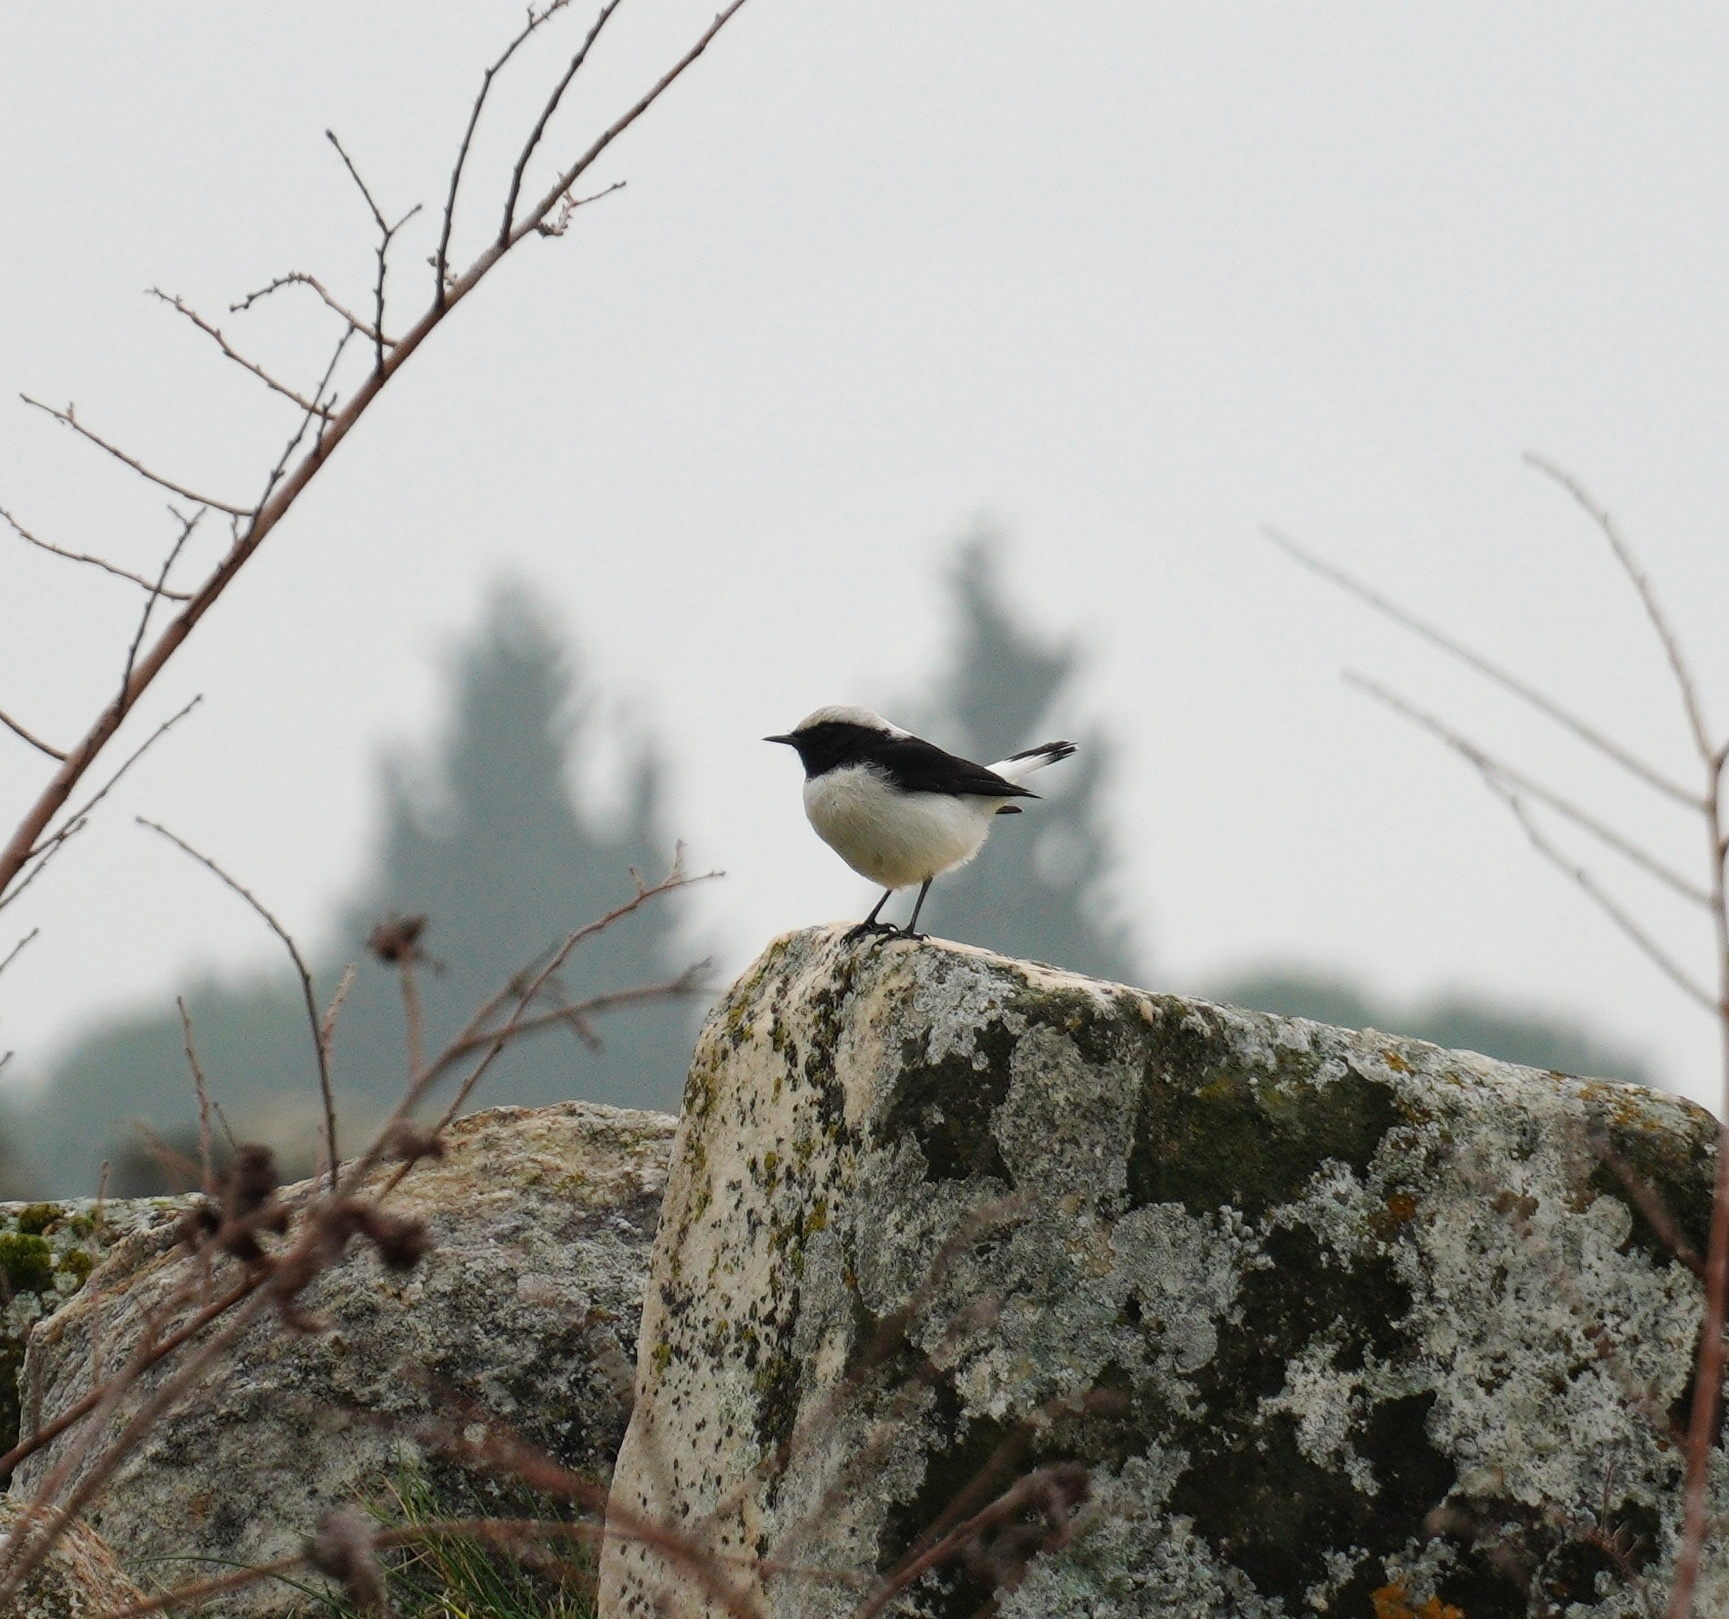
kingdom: Animalia
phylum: Chordata
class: Aves
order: Passeriformes
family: Muscicapidae
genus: Oenanthe
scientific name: Oenanthe finschii
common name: Finsch's wheatear
